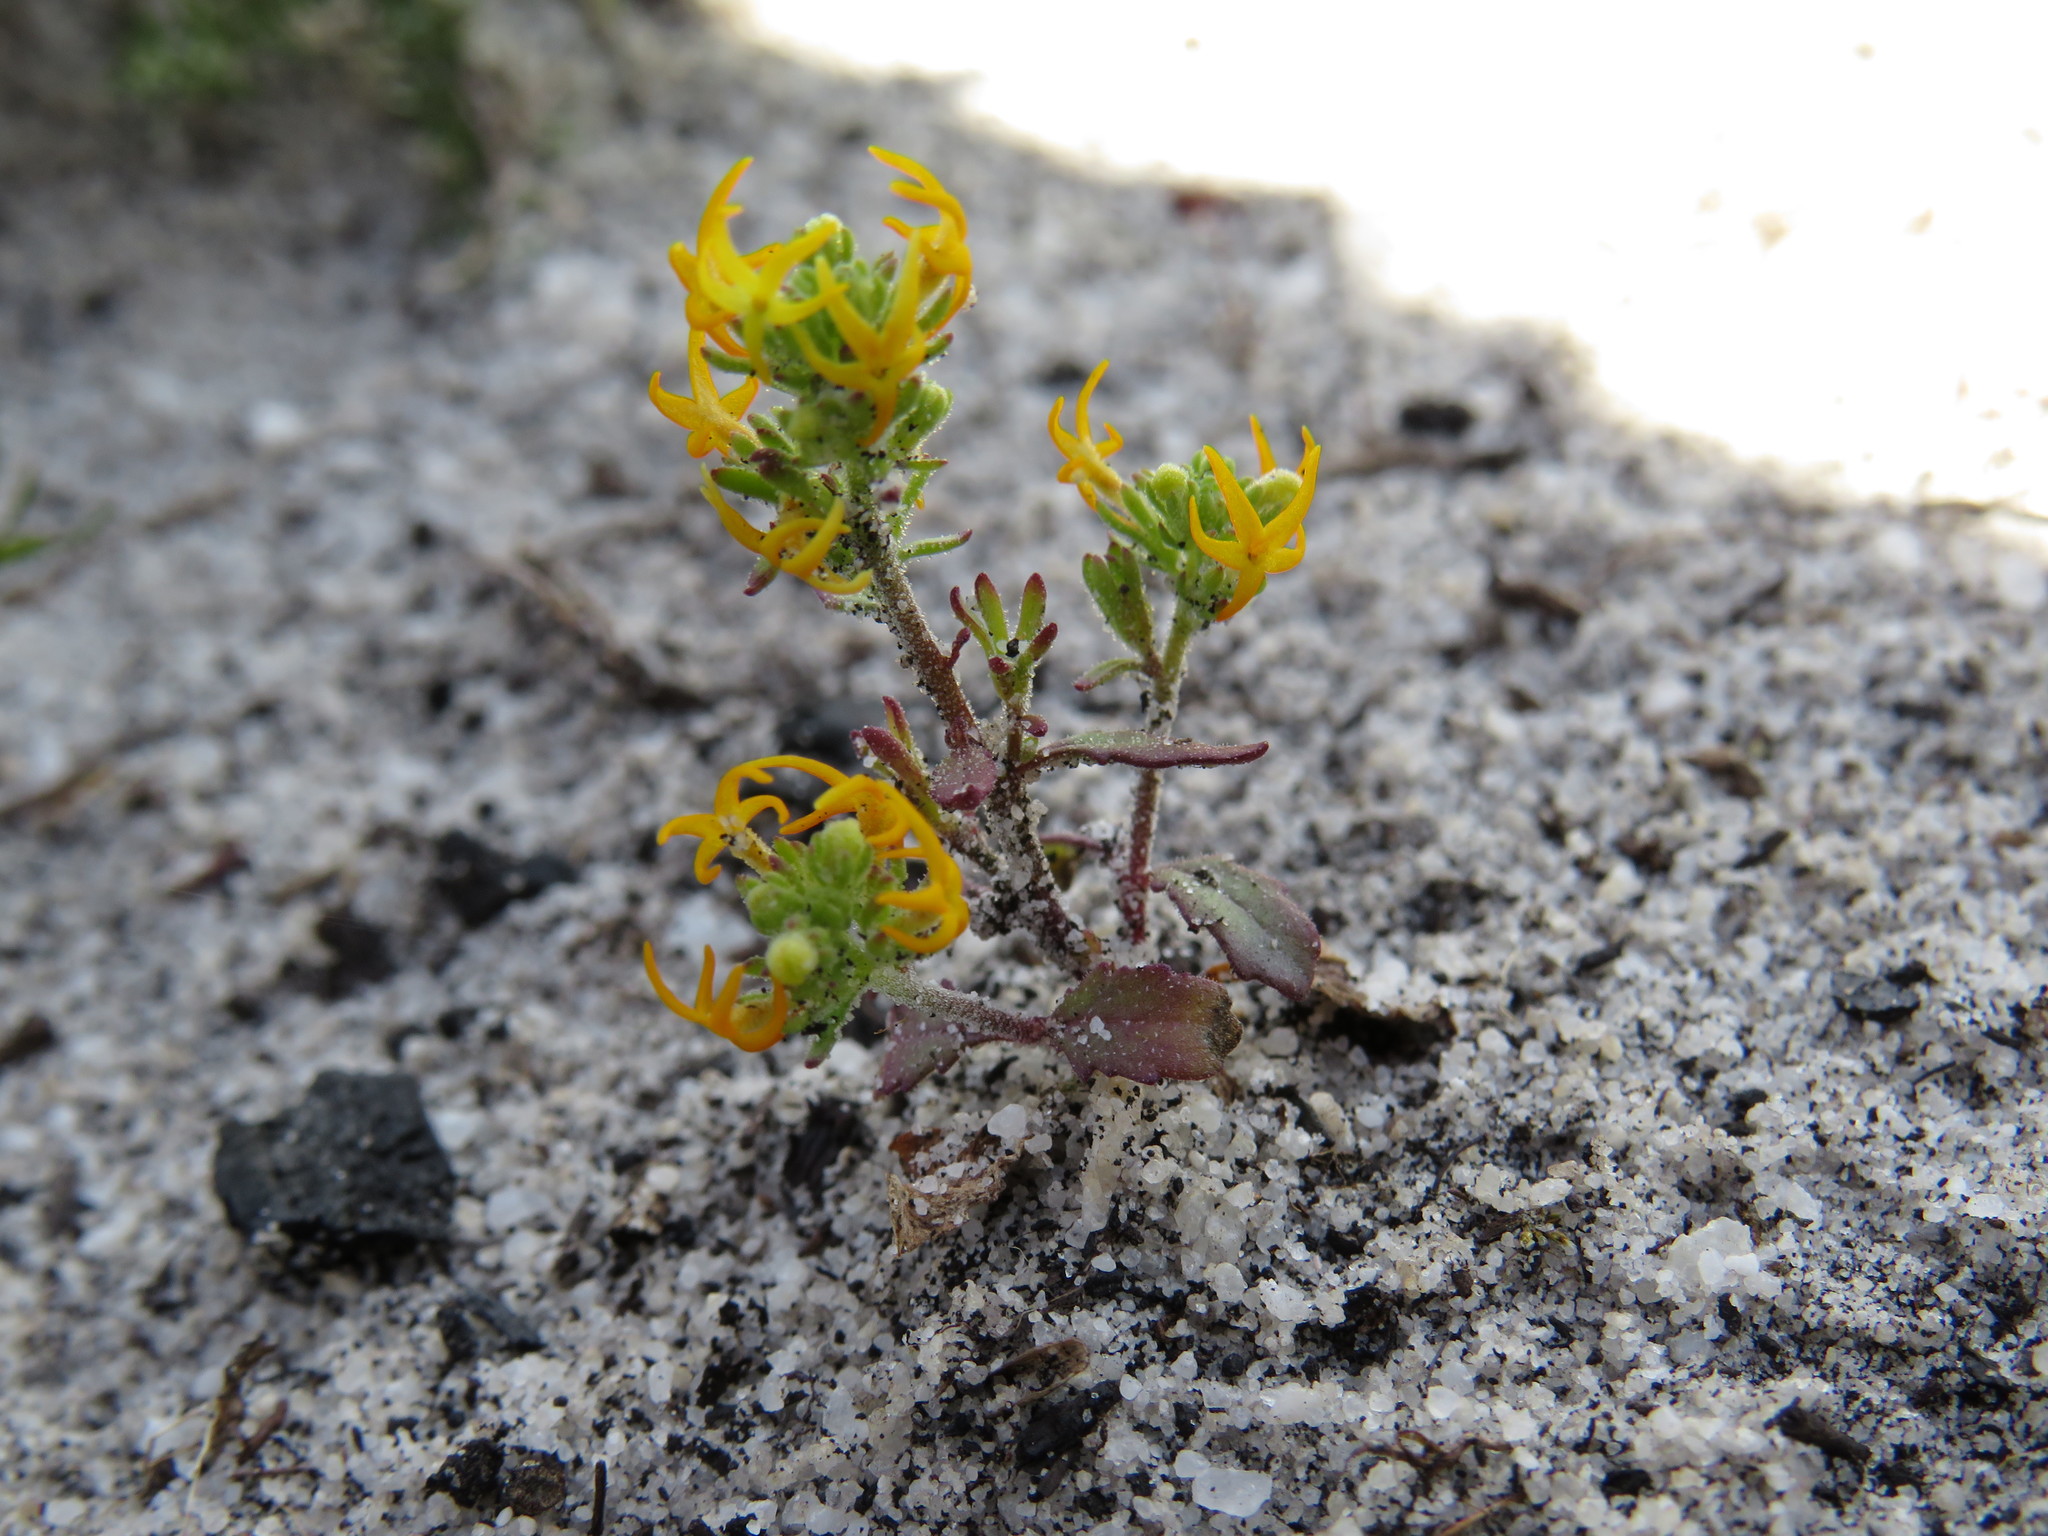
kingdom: Plantae
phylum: Tracheophyta
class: Magnoliopsida
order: Lamiales
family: Scrophulariaceae
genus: Manulea
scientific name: Manulea cheiranthus
